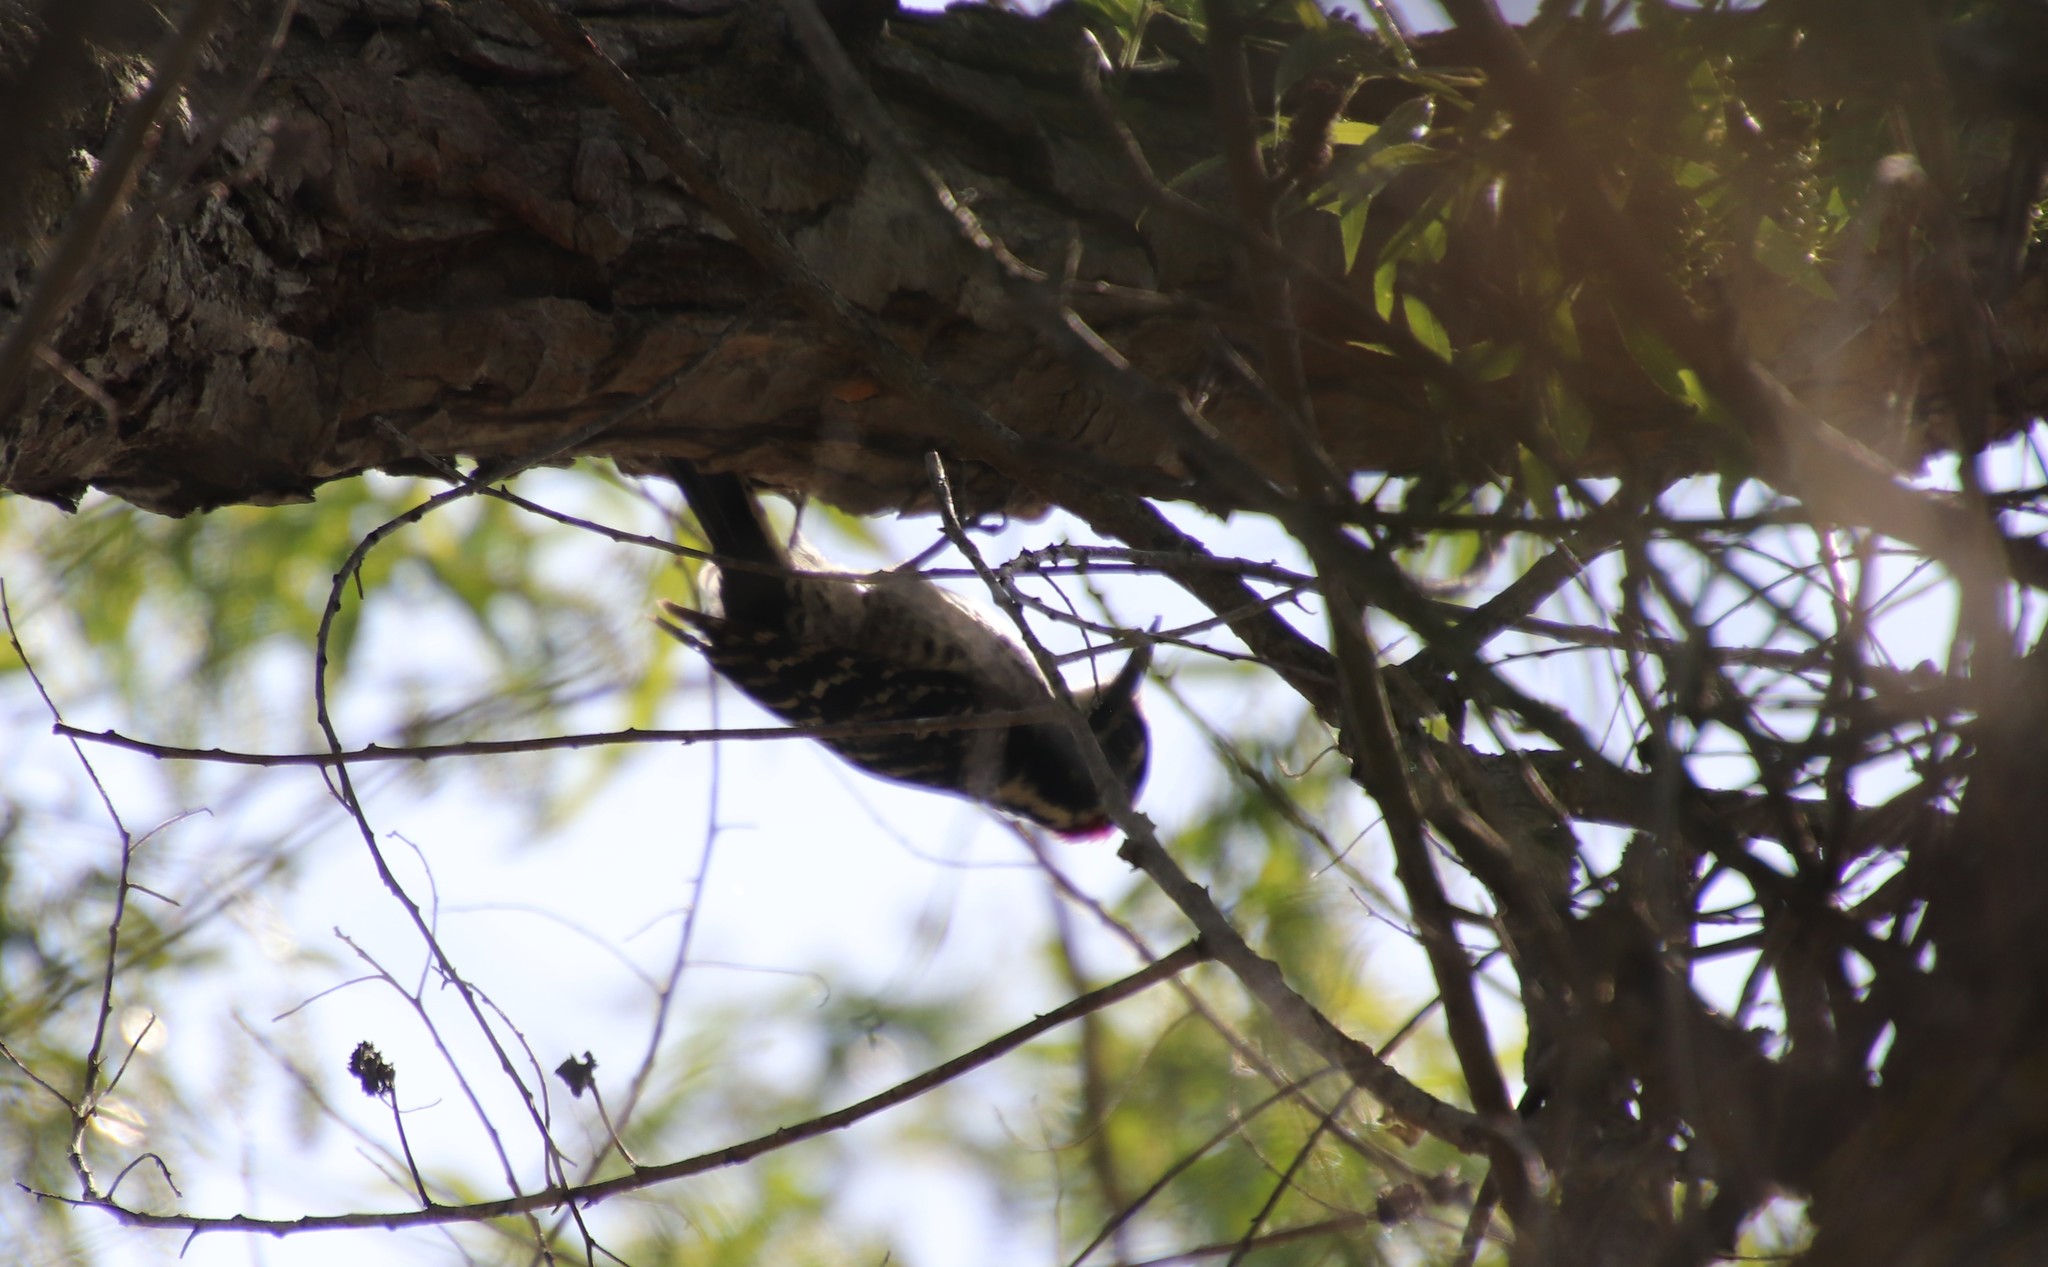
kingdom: Animalia
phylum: Chordata
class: Aves
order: Piciformes
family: Picidae
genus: Dryobates
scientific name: Dryobates nuttallii
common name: Nuttall's woodpecker
